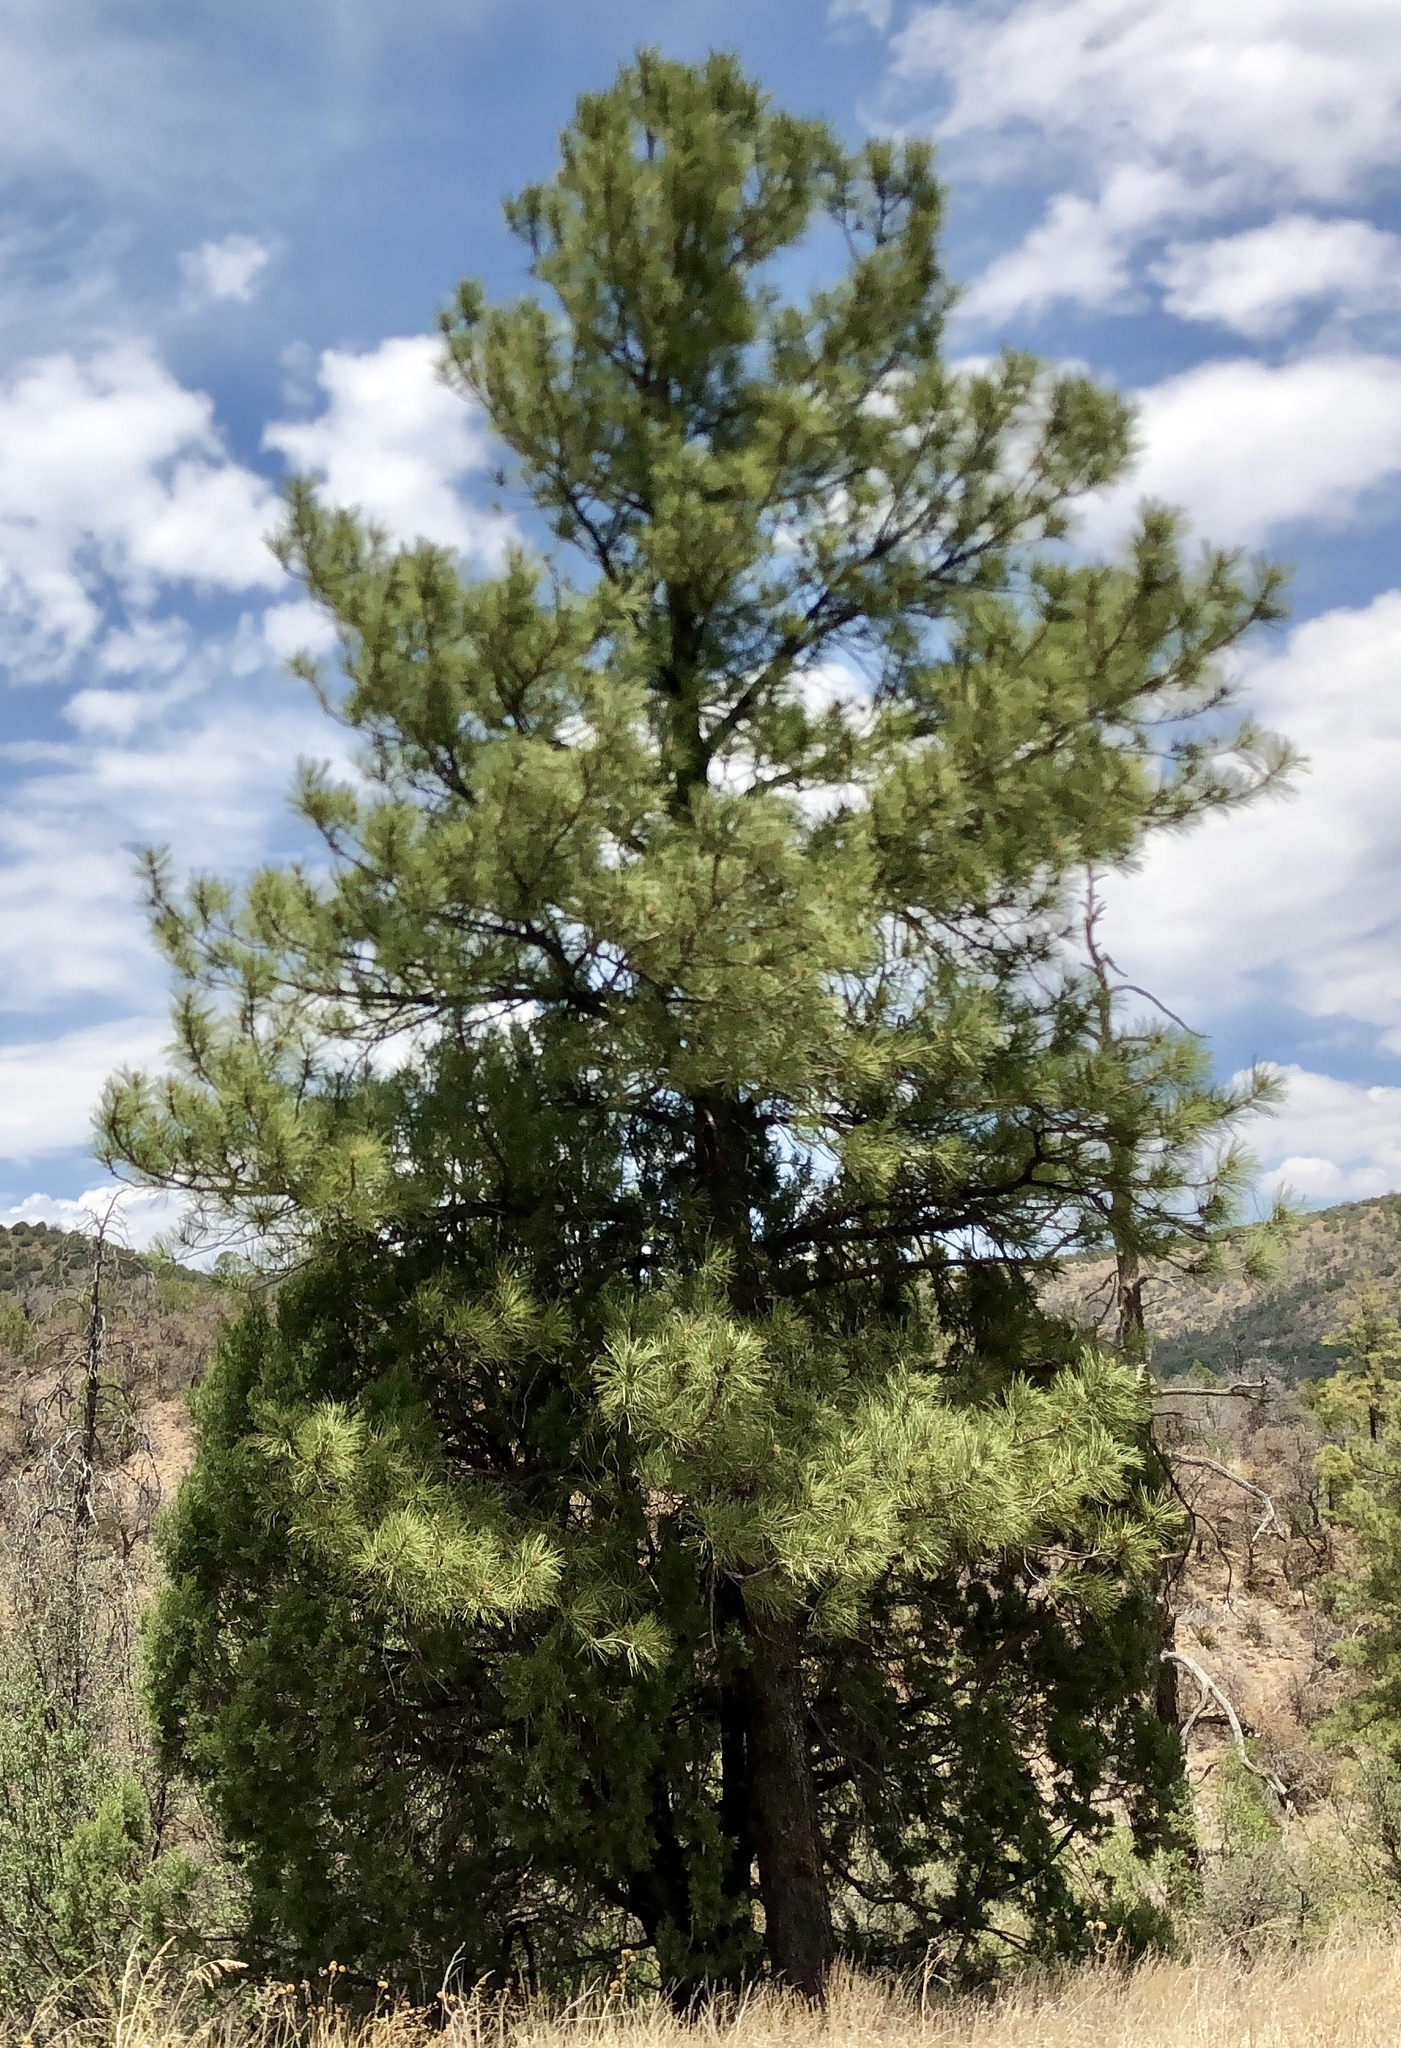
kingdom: Plantae
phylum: Tracheophyta
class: Pinopsida
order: Pinales
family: Pinaceae
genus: Pinus
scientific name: Pinus ponderosa
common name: Western yellow-pine
